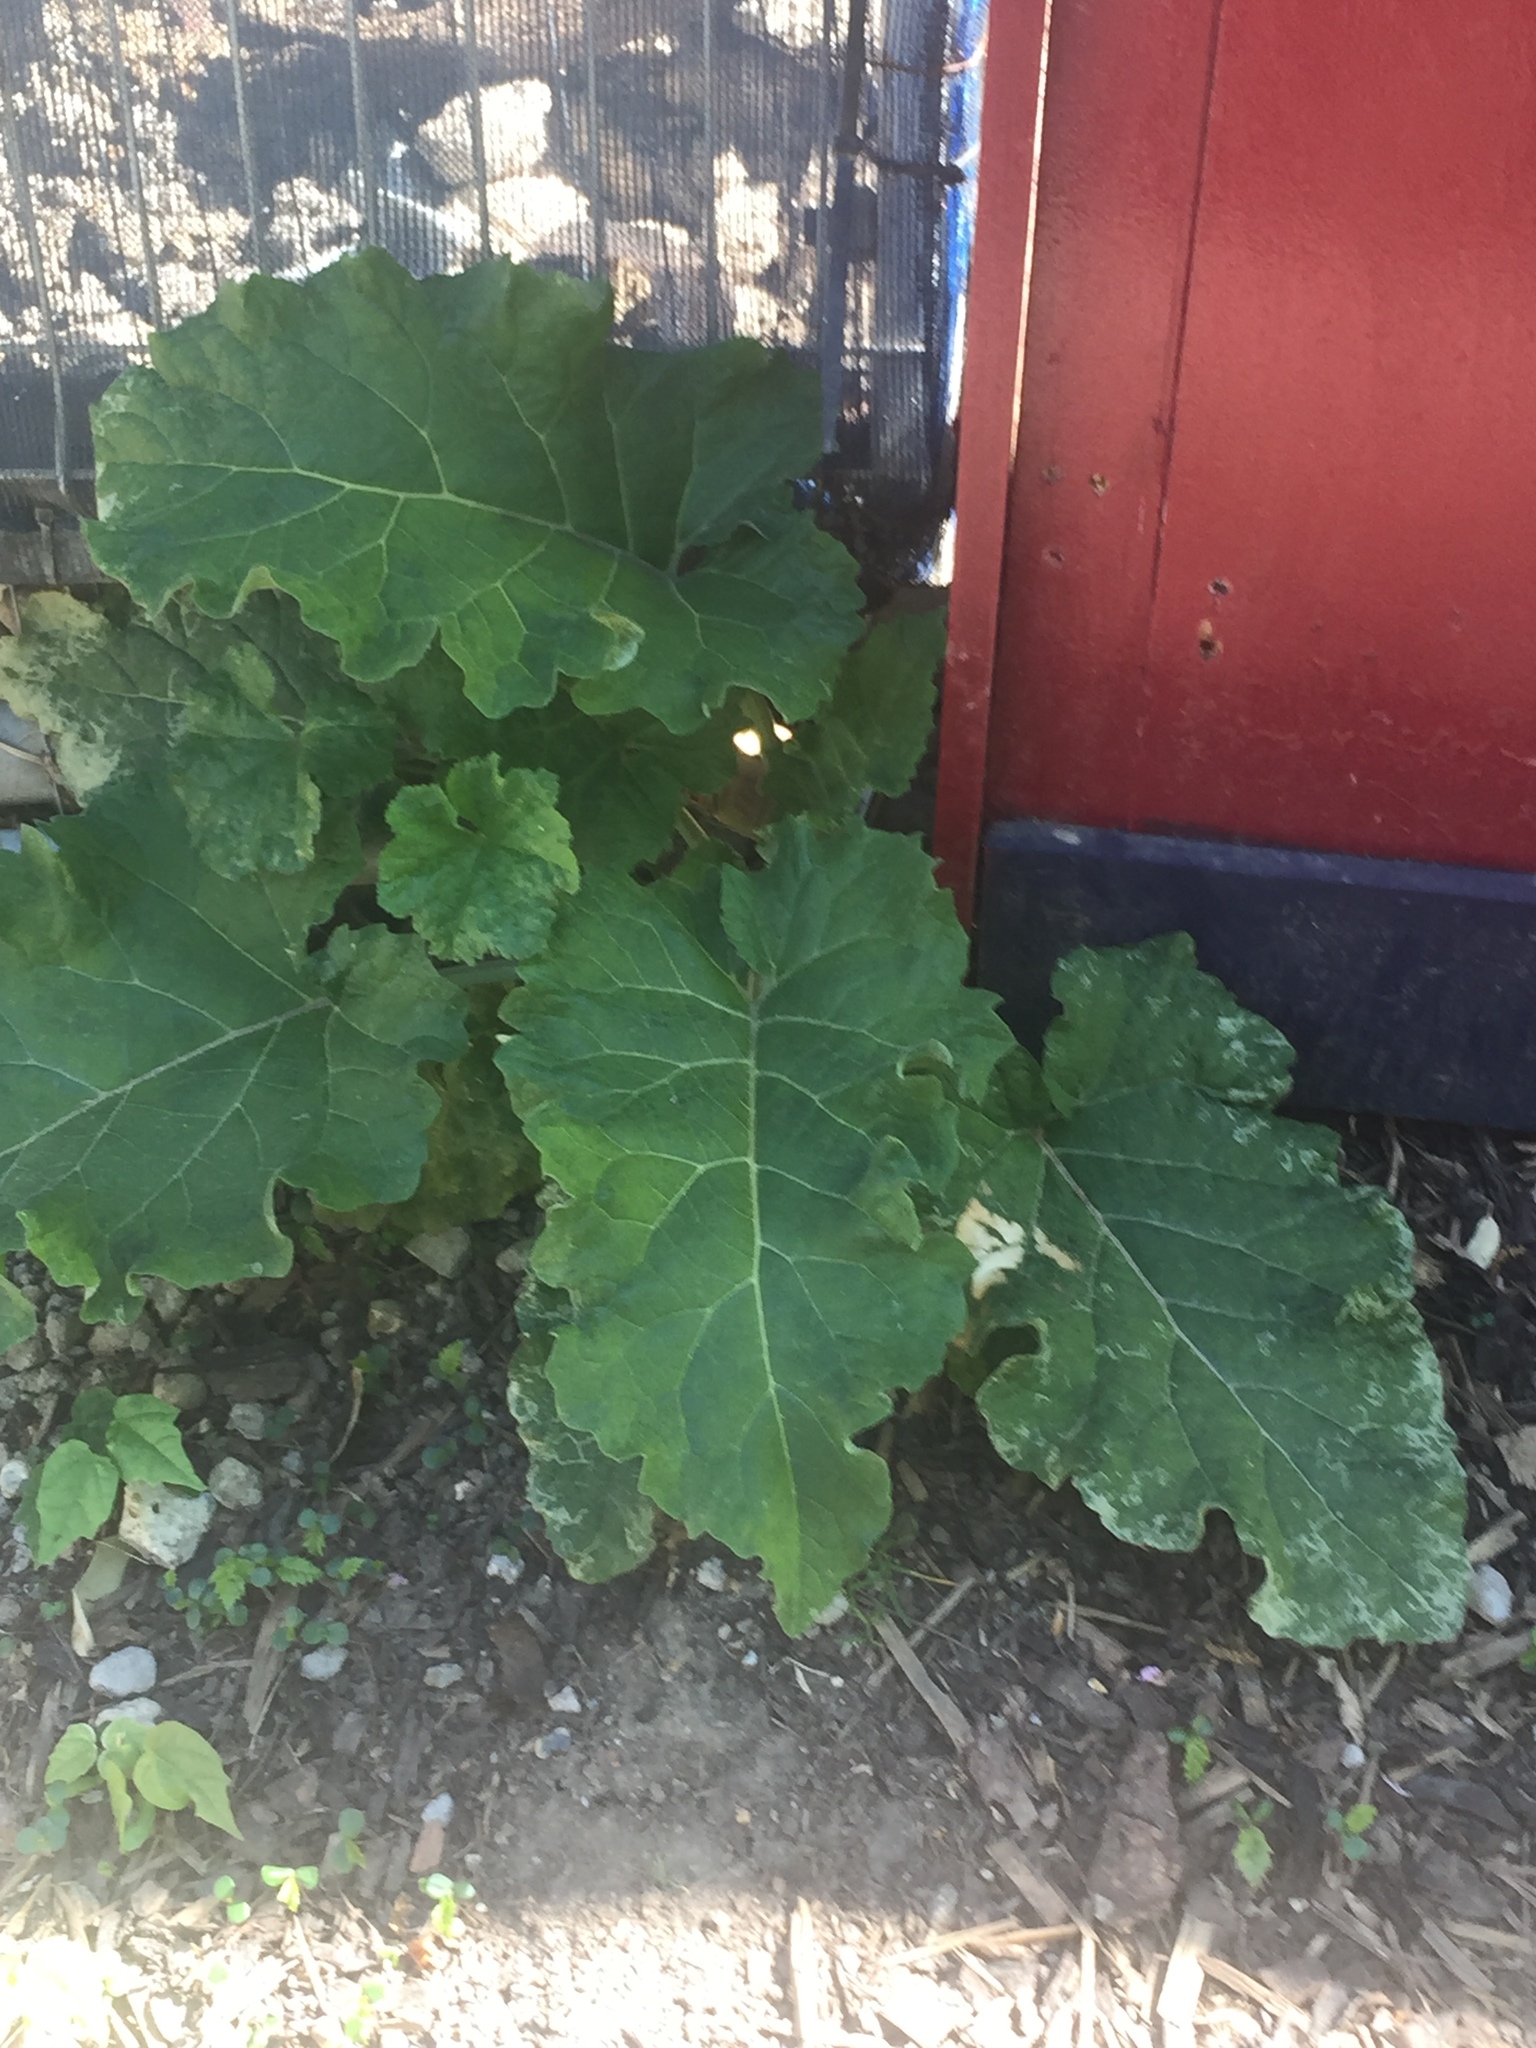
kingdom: Plantae
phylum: Tracheophyta
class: Magnoliopsida
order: Asterales
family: Asteraceae
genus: Arctium
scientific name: Arctium lappa
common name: Greater burdock
